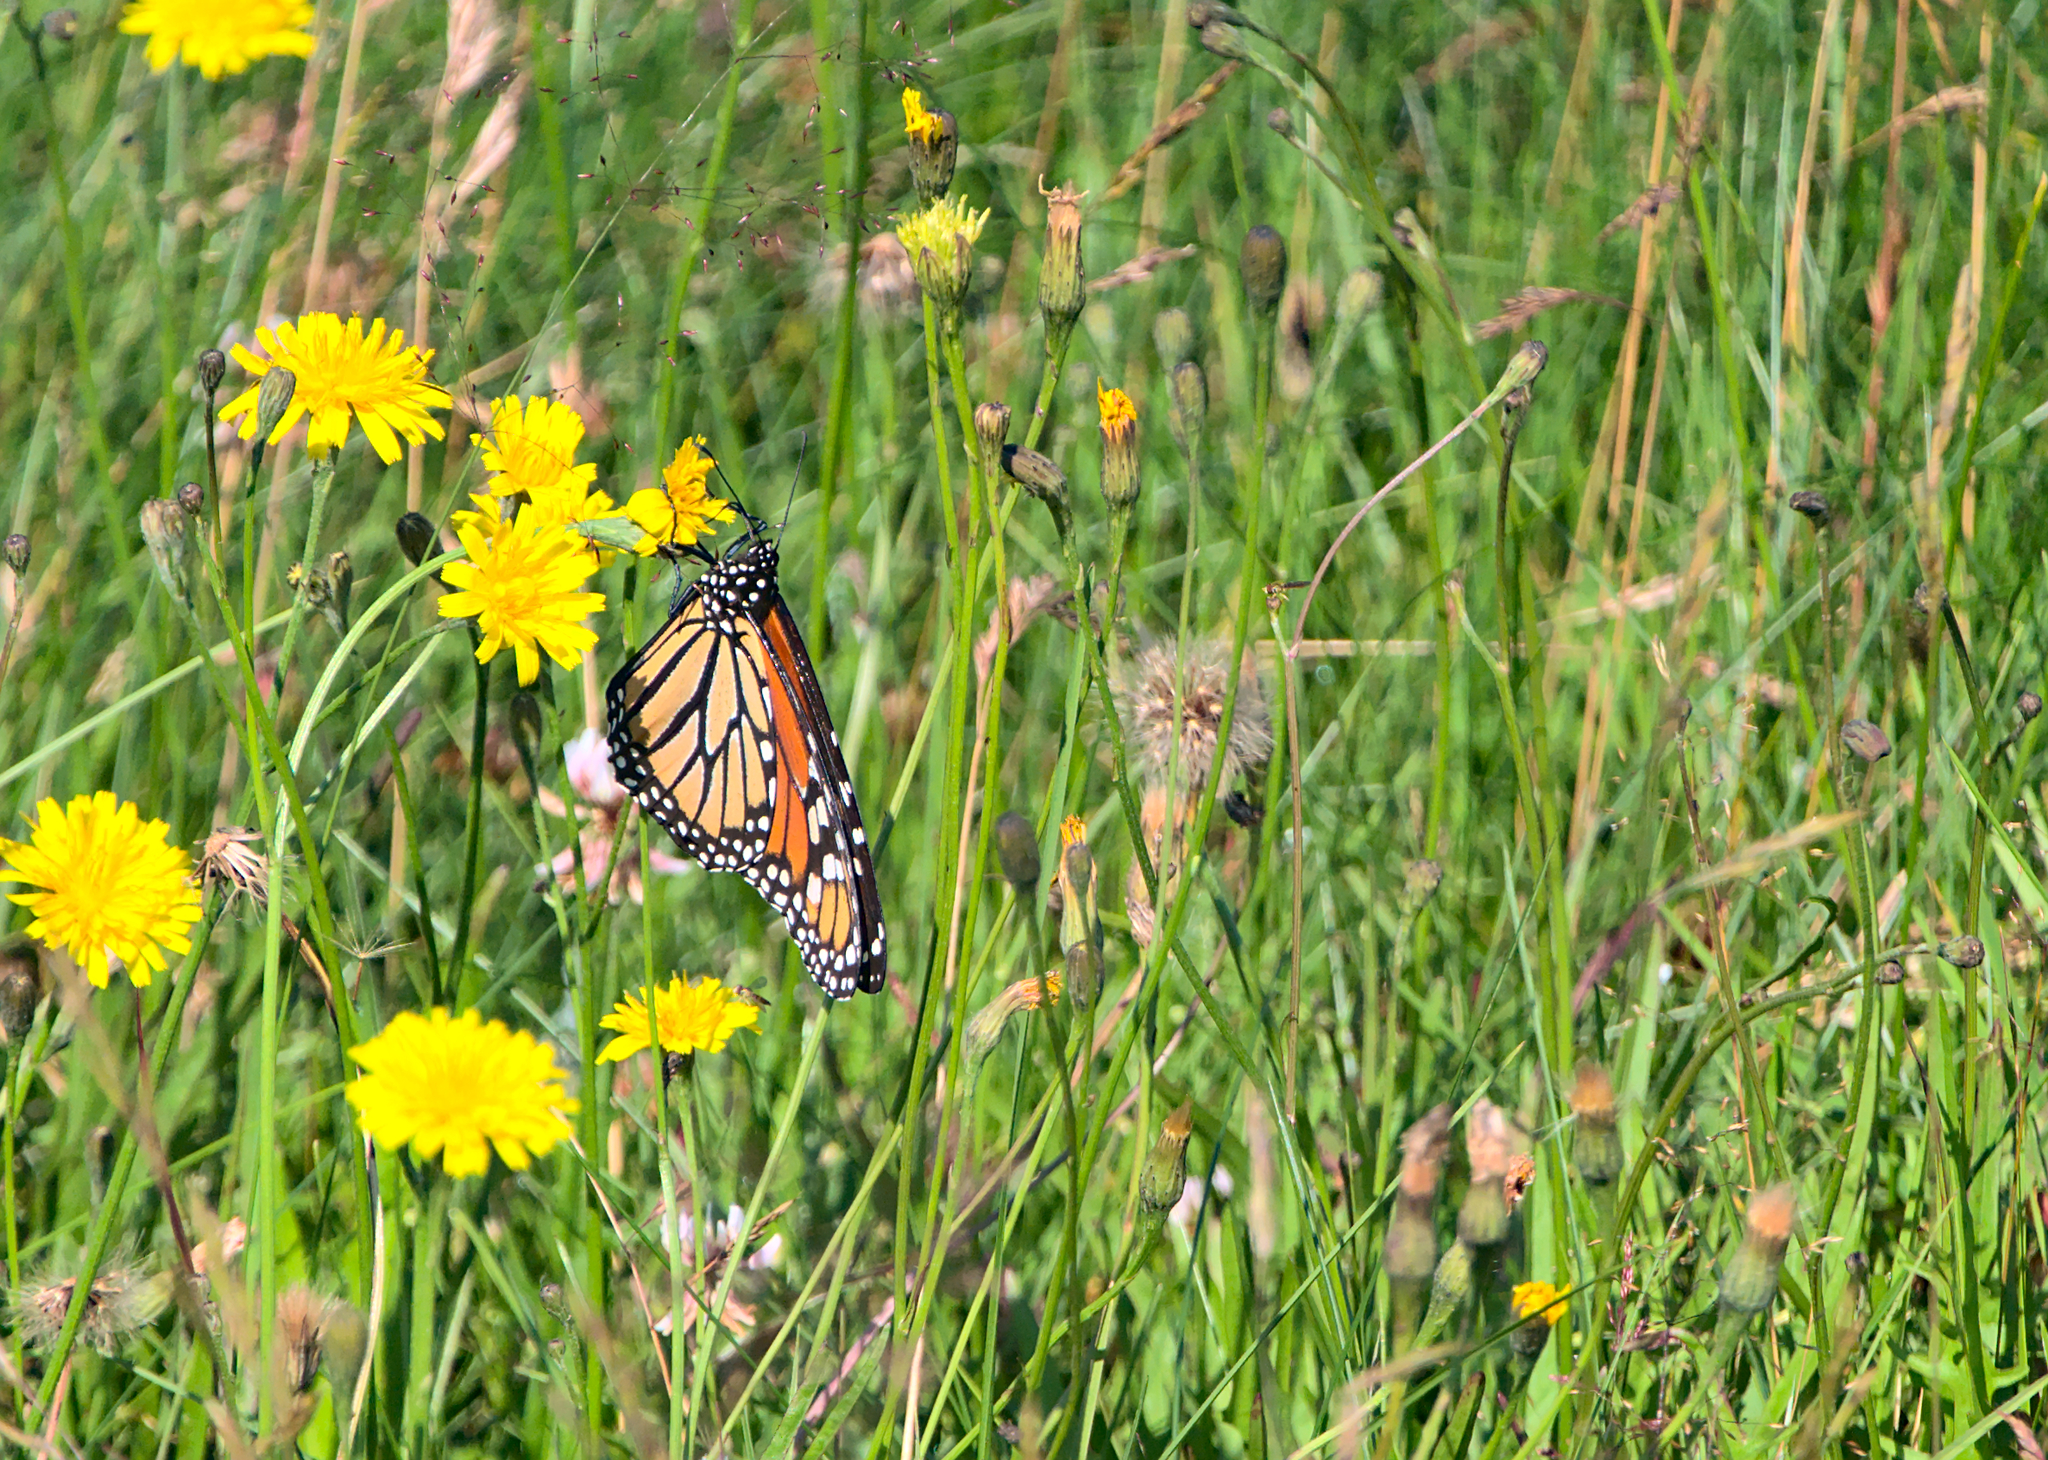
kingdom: Animalia
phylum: Arthropoda
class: Insecta
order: Lepidoptera
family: Nymphalidae
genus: Danaus
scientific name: Danaus plexippus
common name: Monarch
